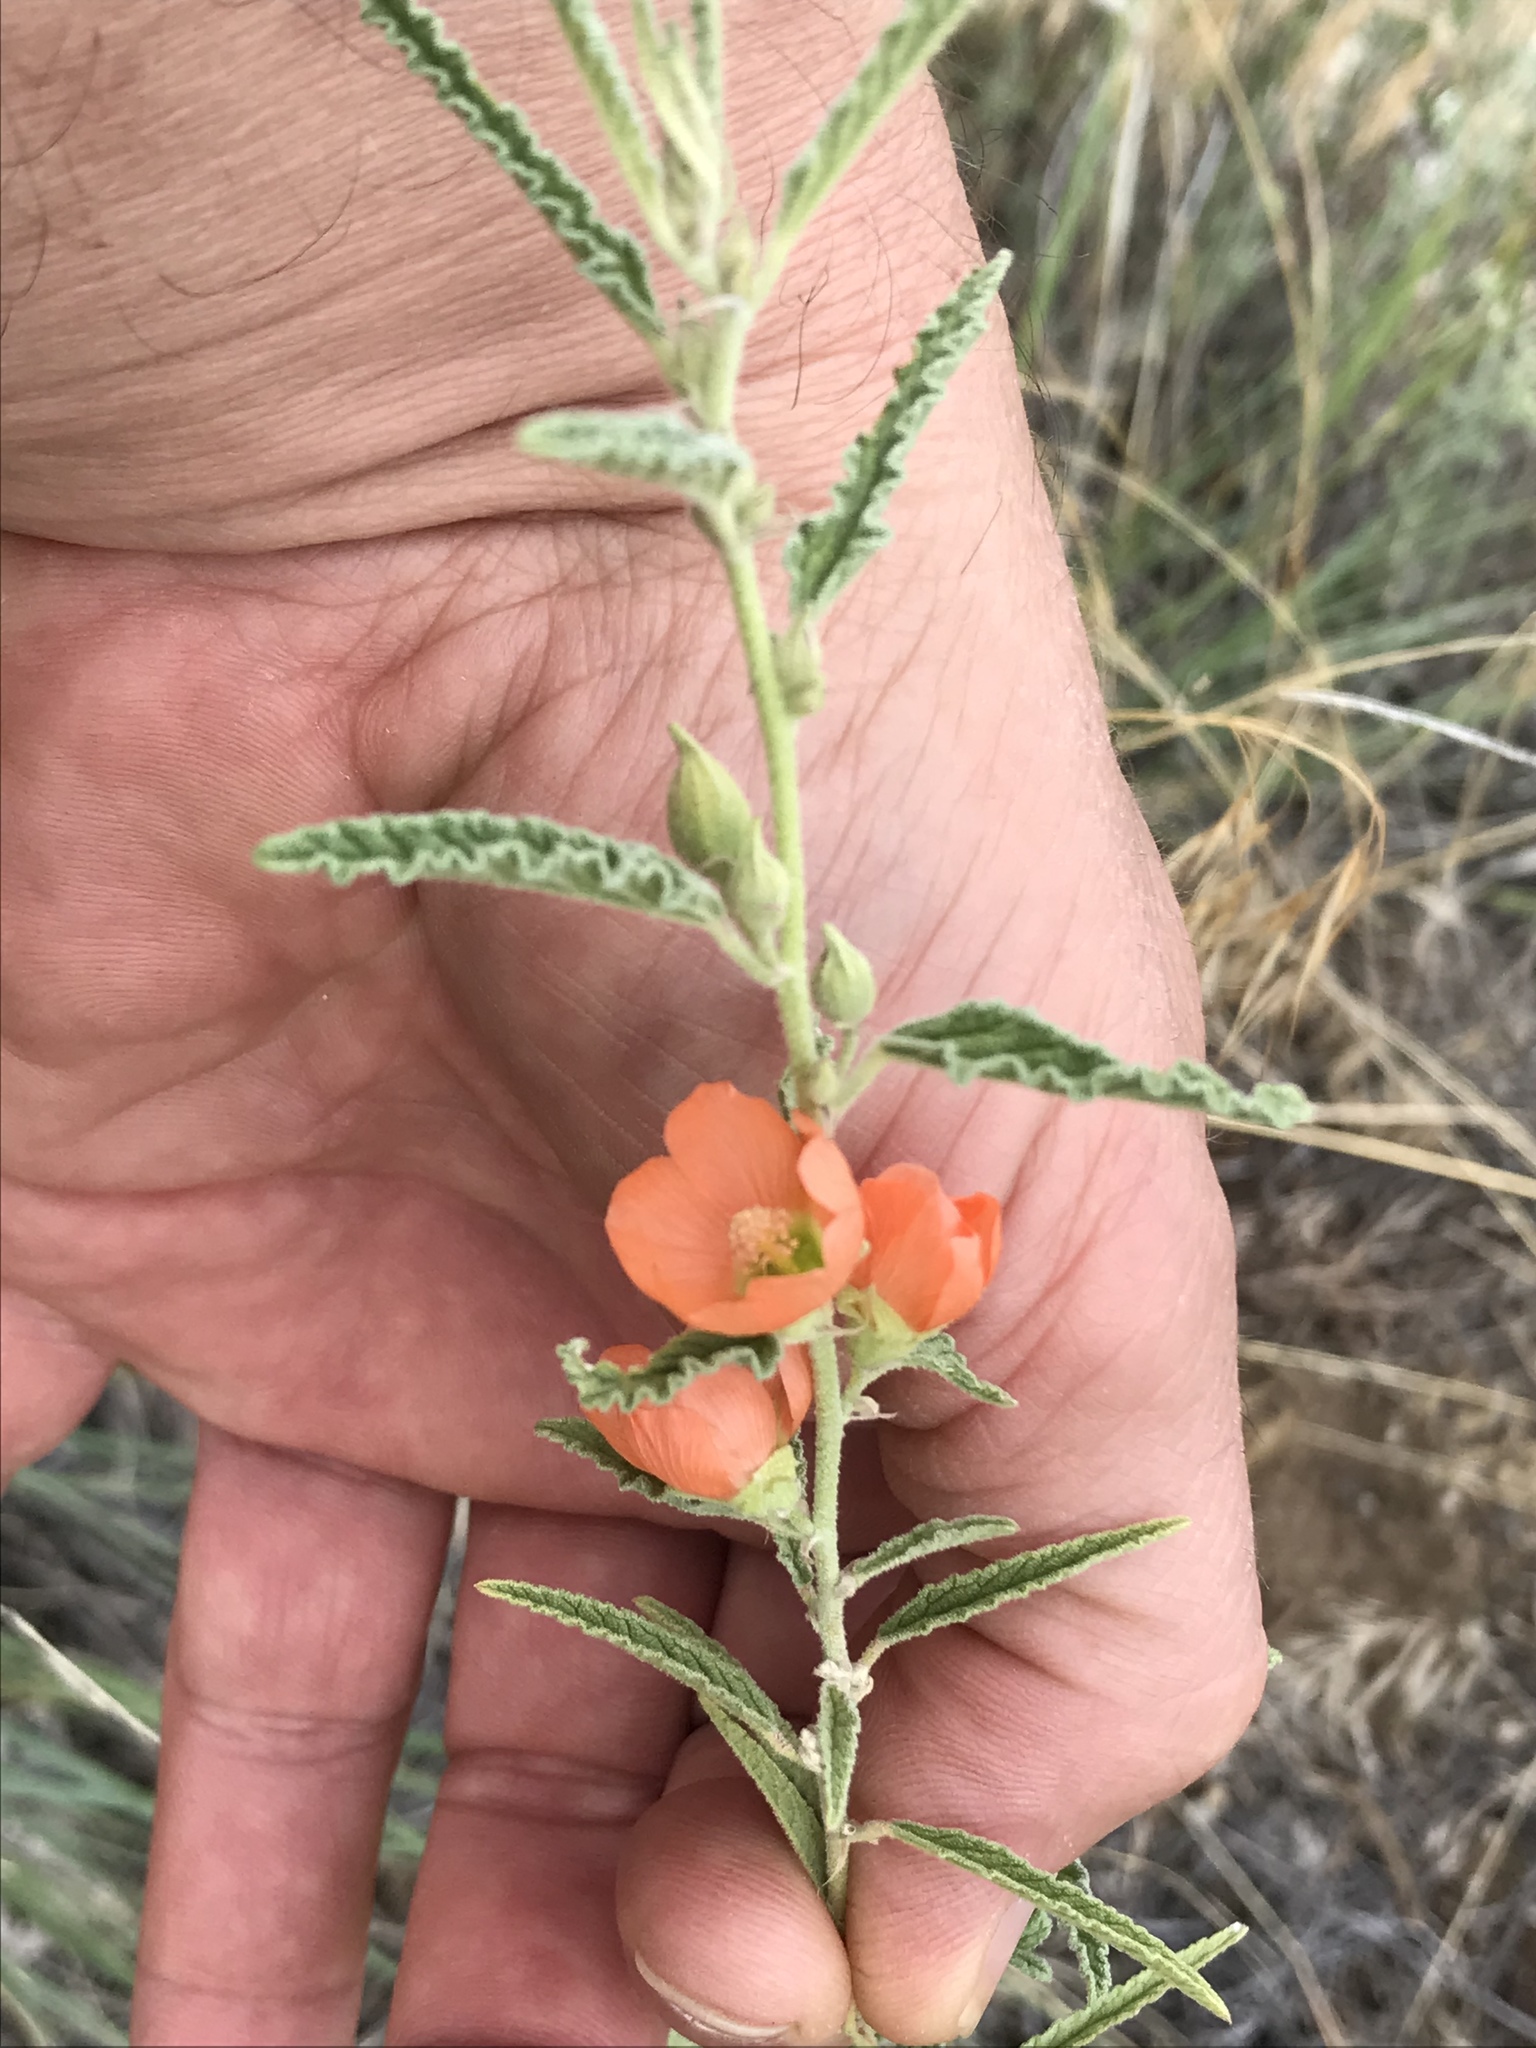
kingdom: Plantae
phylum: Tracheophyta
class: Magnoliopsida
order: Malvales
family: Malvaceae
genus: Sphaeralcea
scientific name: Sphaeralcea angustifolia
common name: Copper globe-mallow
